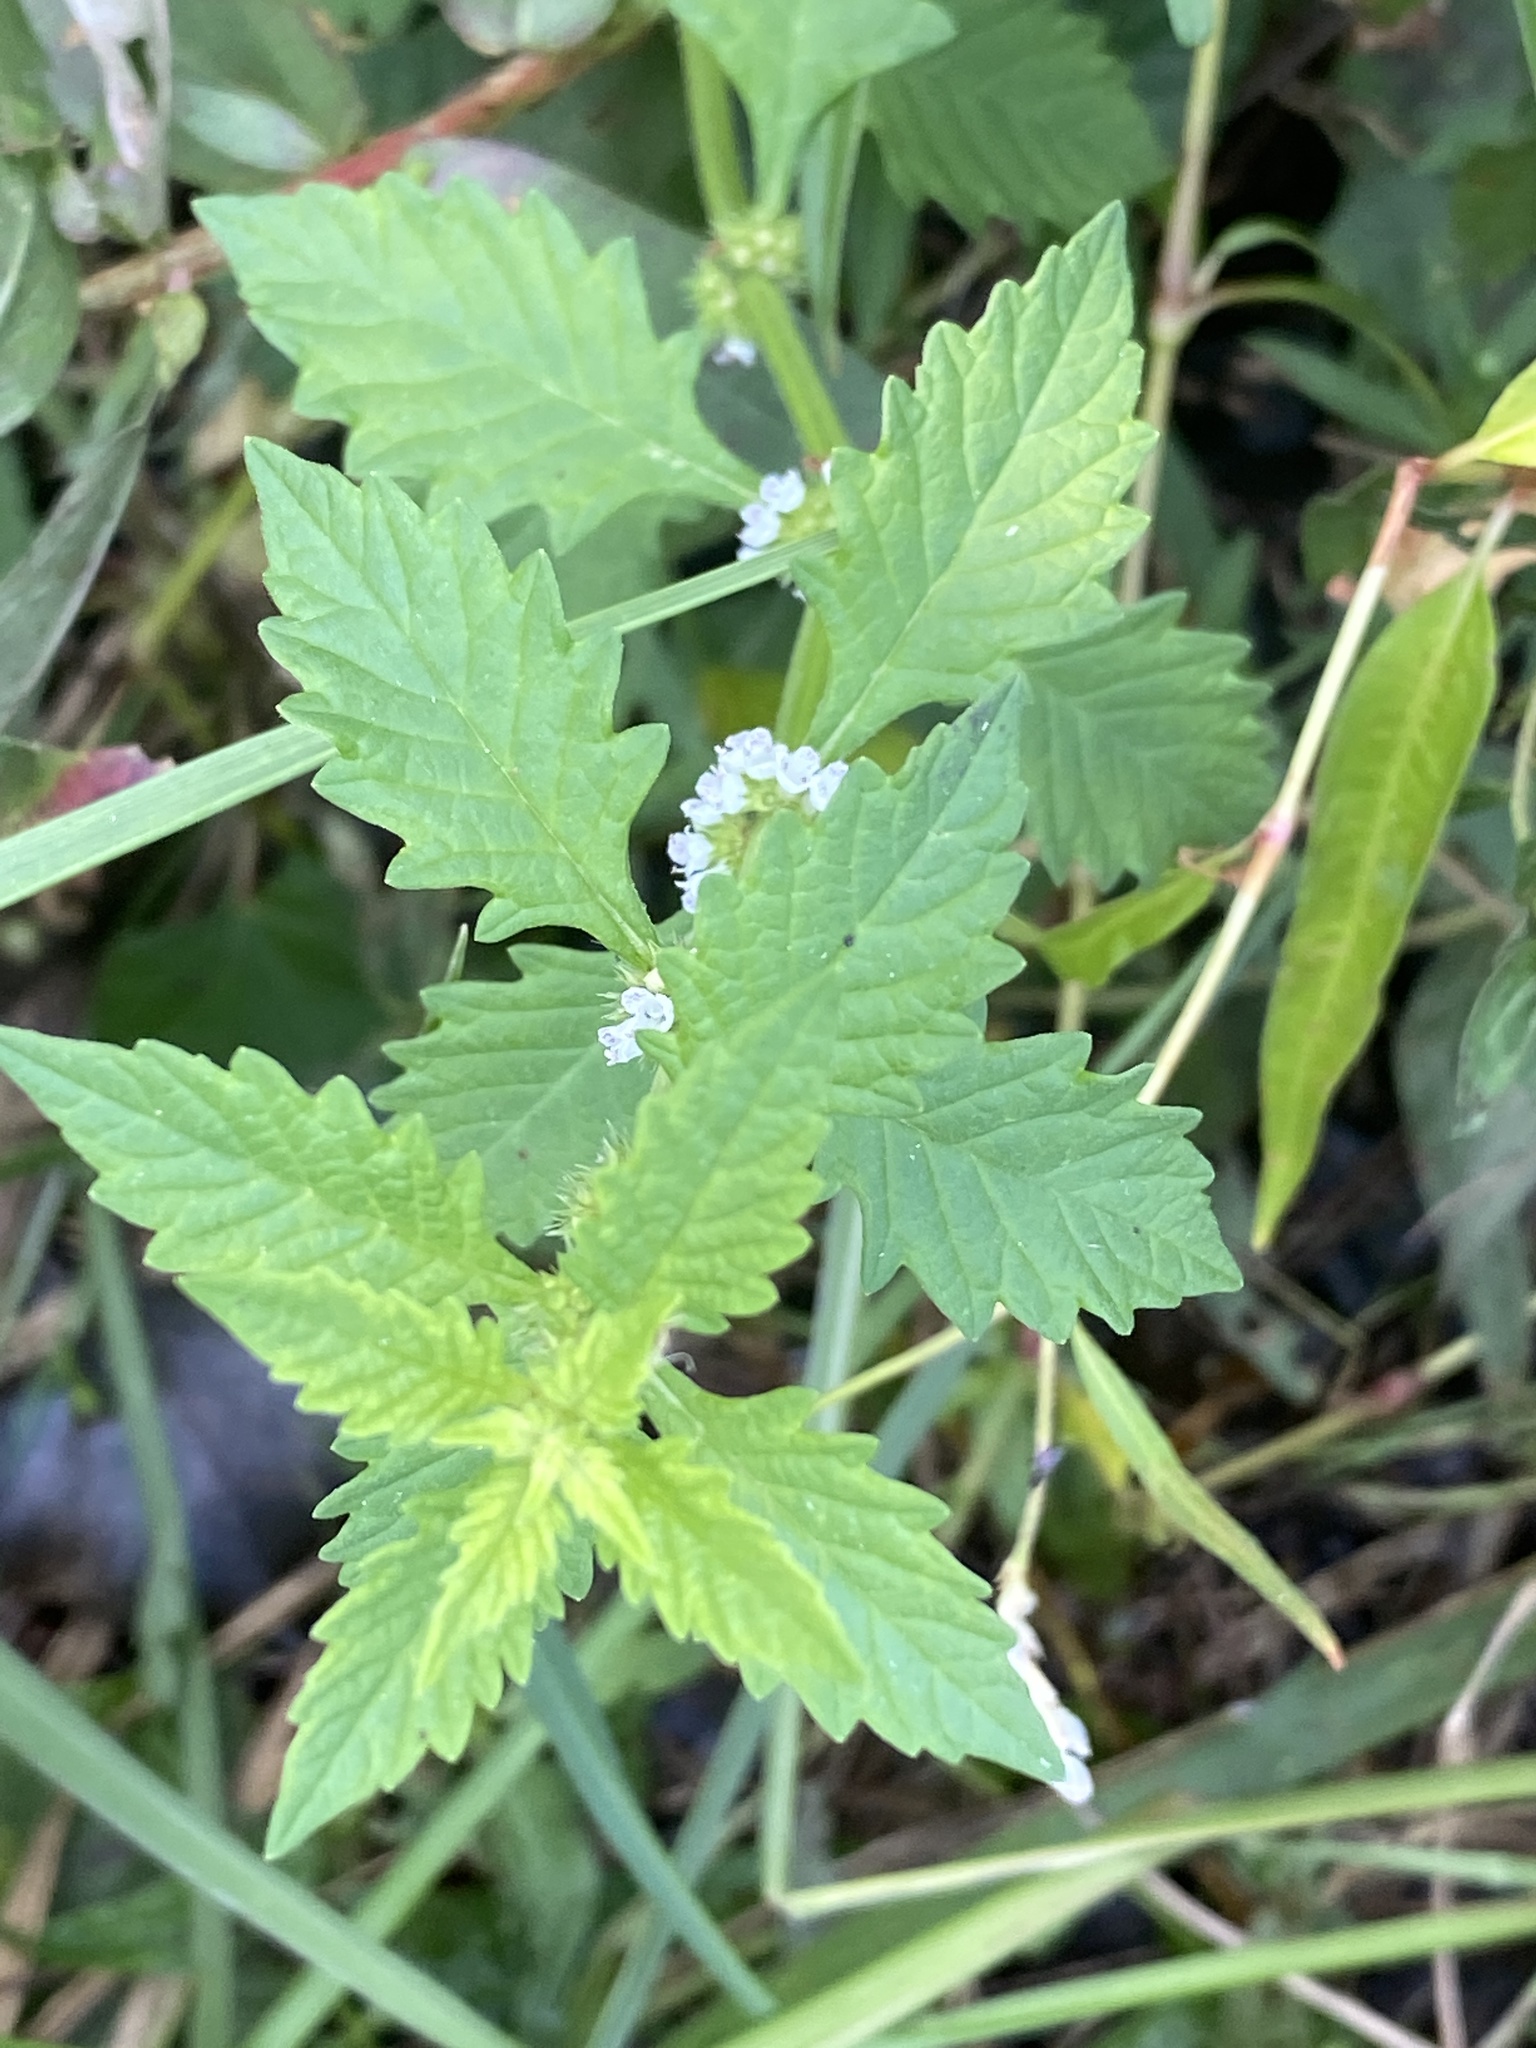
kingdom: Plantae
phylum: Tracheophyta
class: Magnoliopsida
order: Lamiales
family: Lamiaceae
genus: Lycopus
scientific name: Lycopus europaeus
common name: European bugleweed
